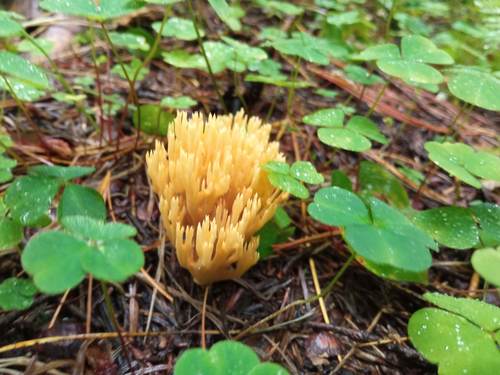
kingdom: Fungi
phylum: Basidiomycota
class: Agaricomycetes
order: Gomphales
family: Gomphaceae
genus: Ramaria
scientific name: Ramaria tsugina
